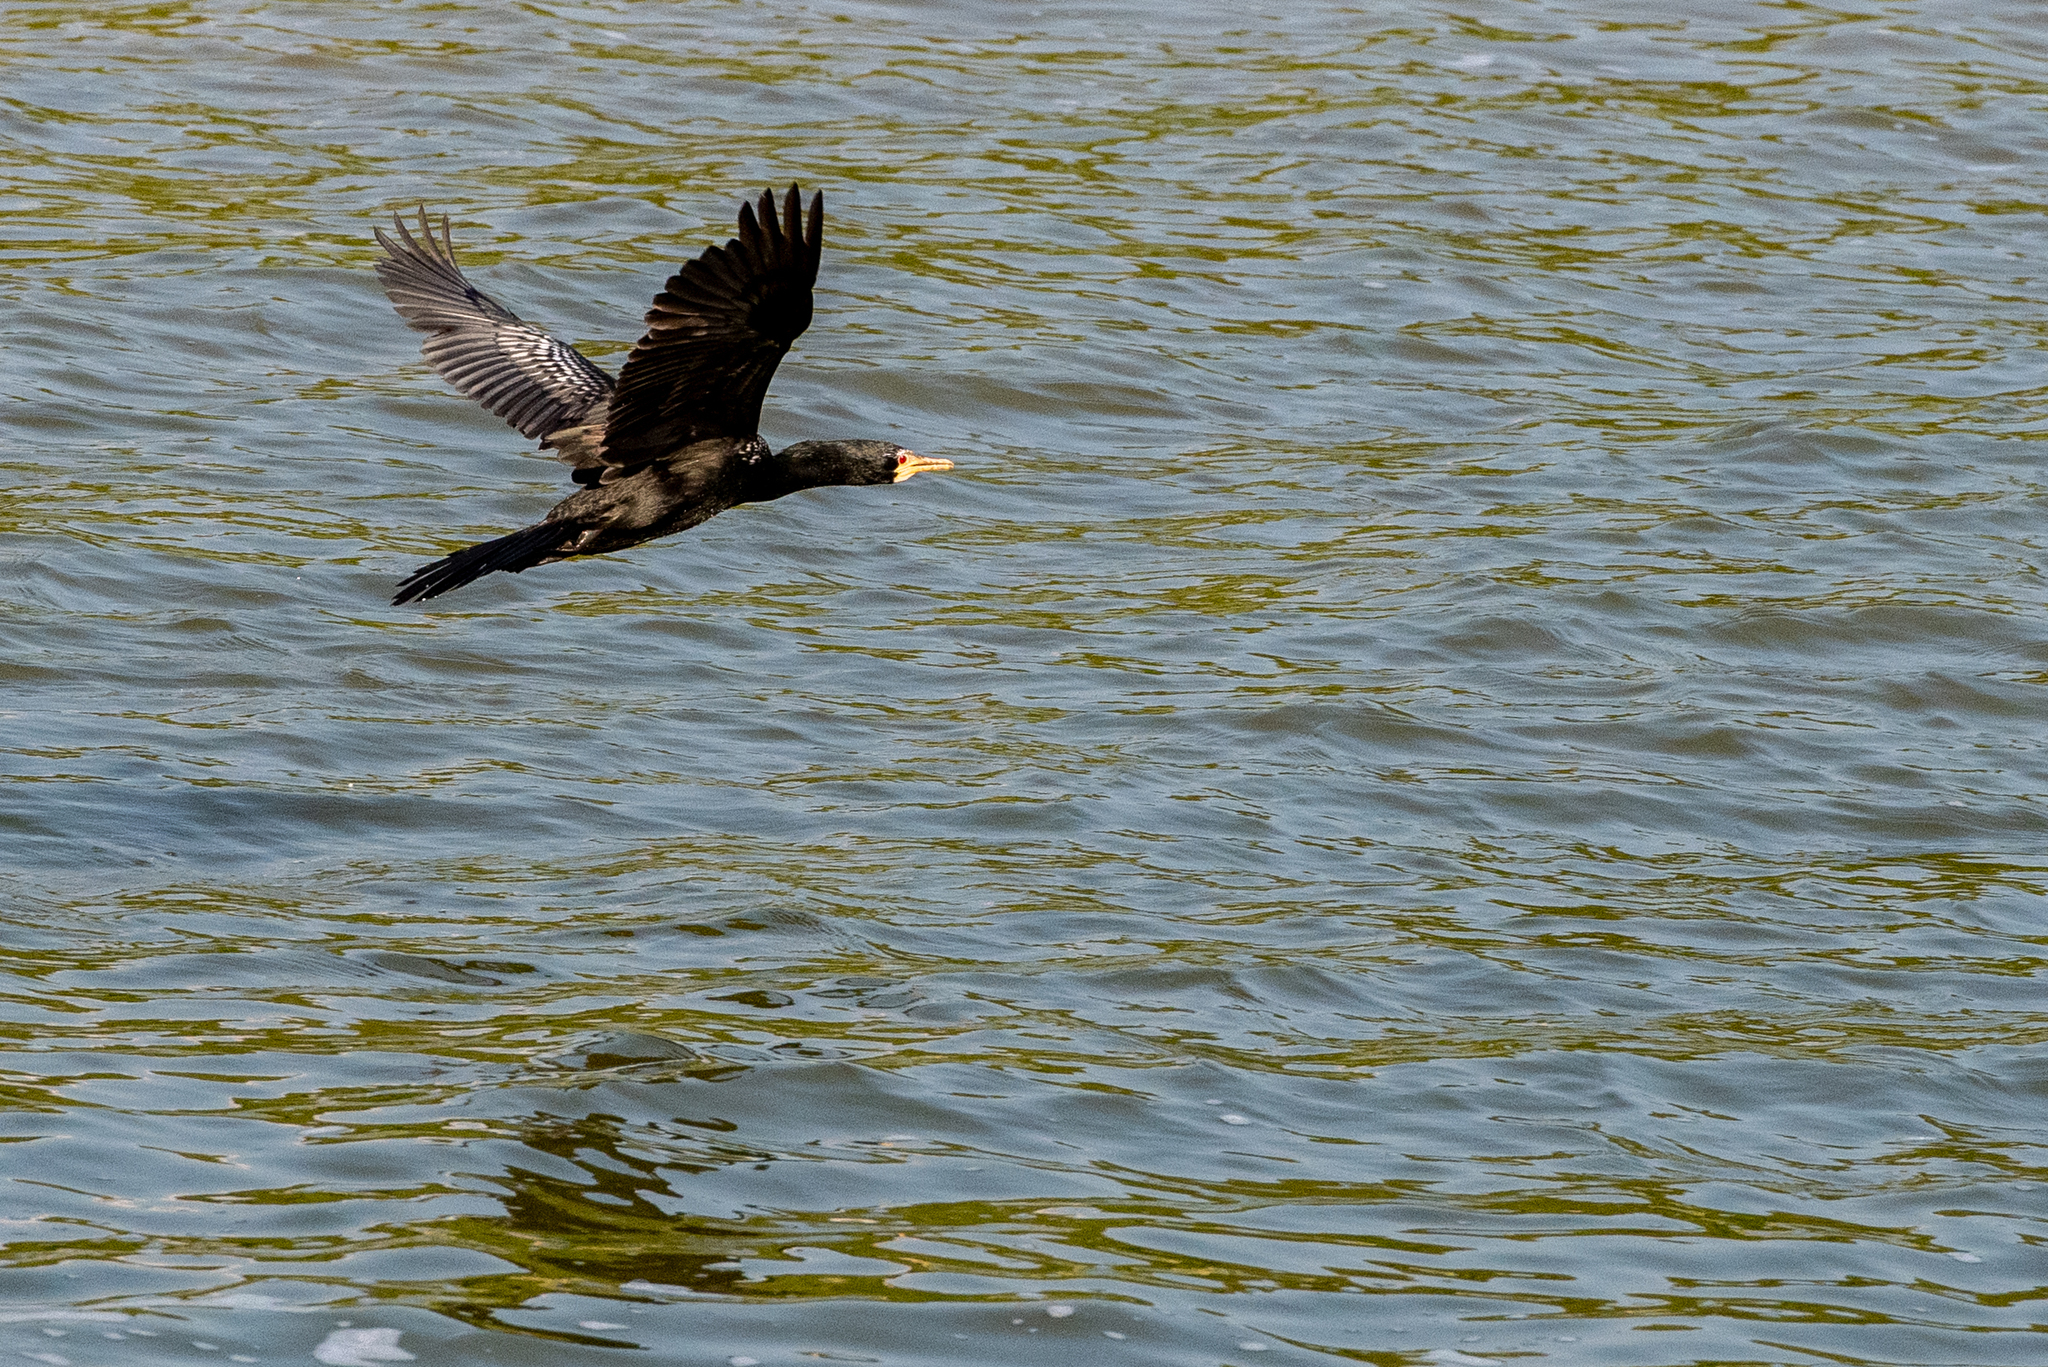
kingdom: Animalia
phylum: Chordata
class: Aves
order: Suliformes
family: Phalacrocoracidae
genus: Microcarbo
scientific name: Microcarbo africanus
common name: Long-tailed cormorant
